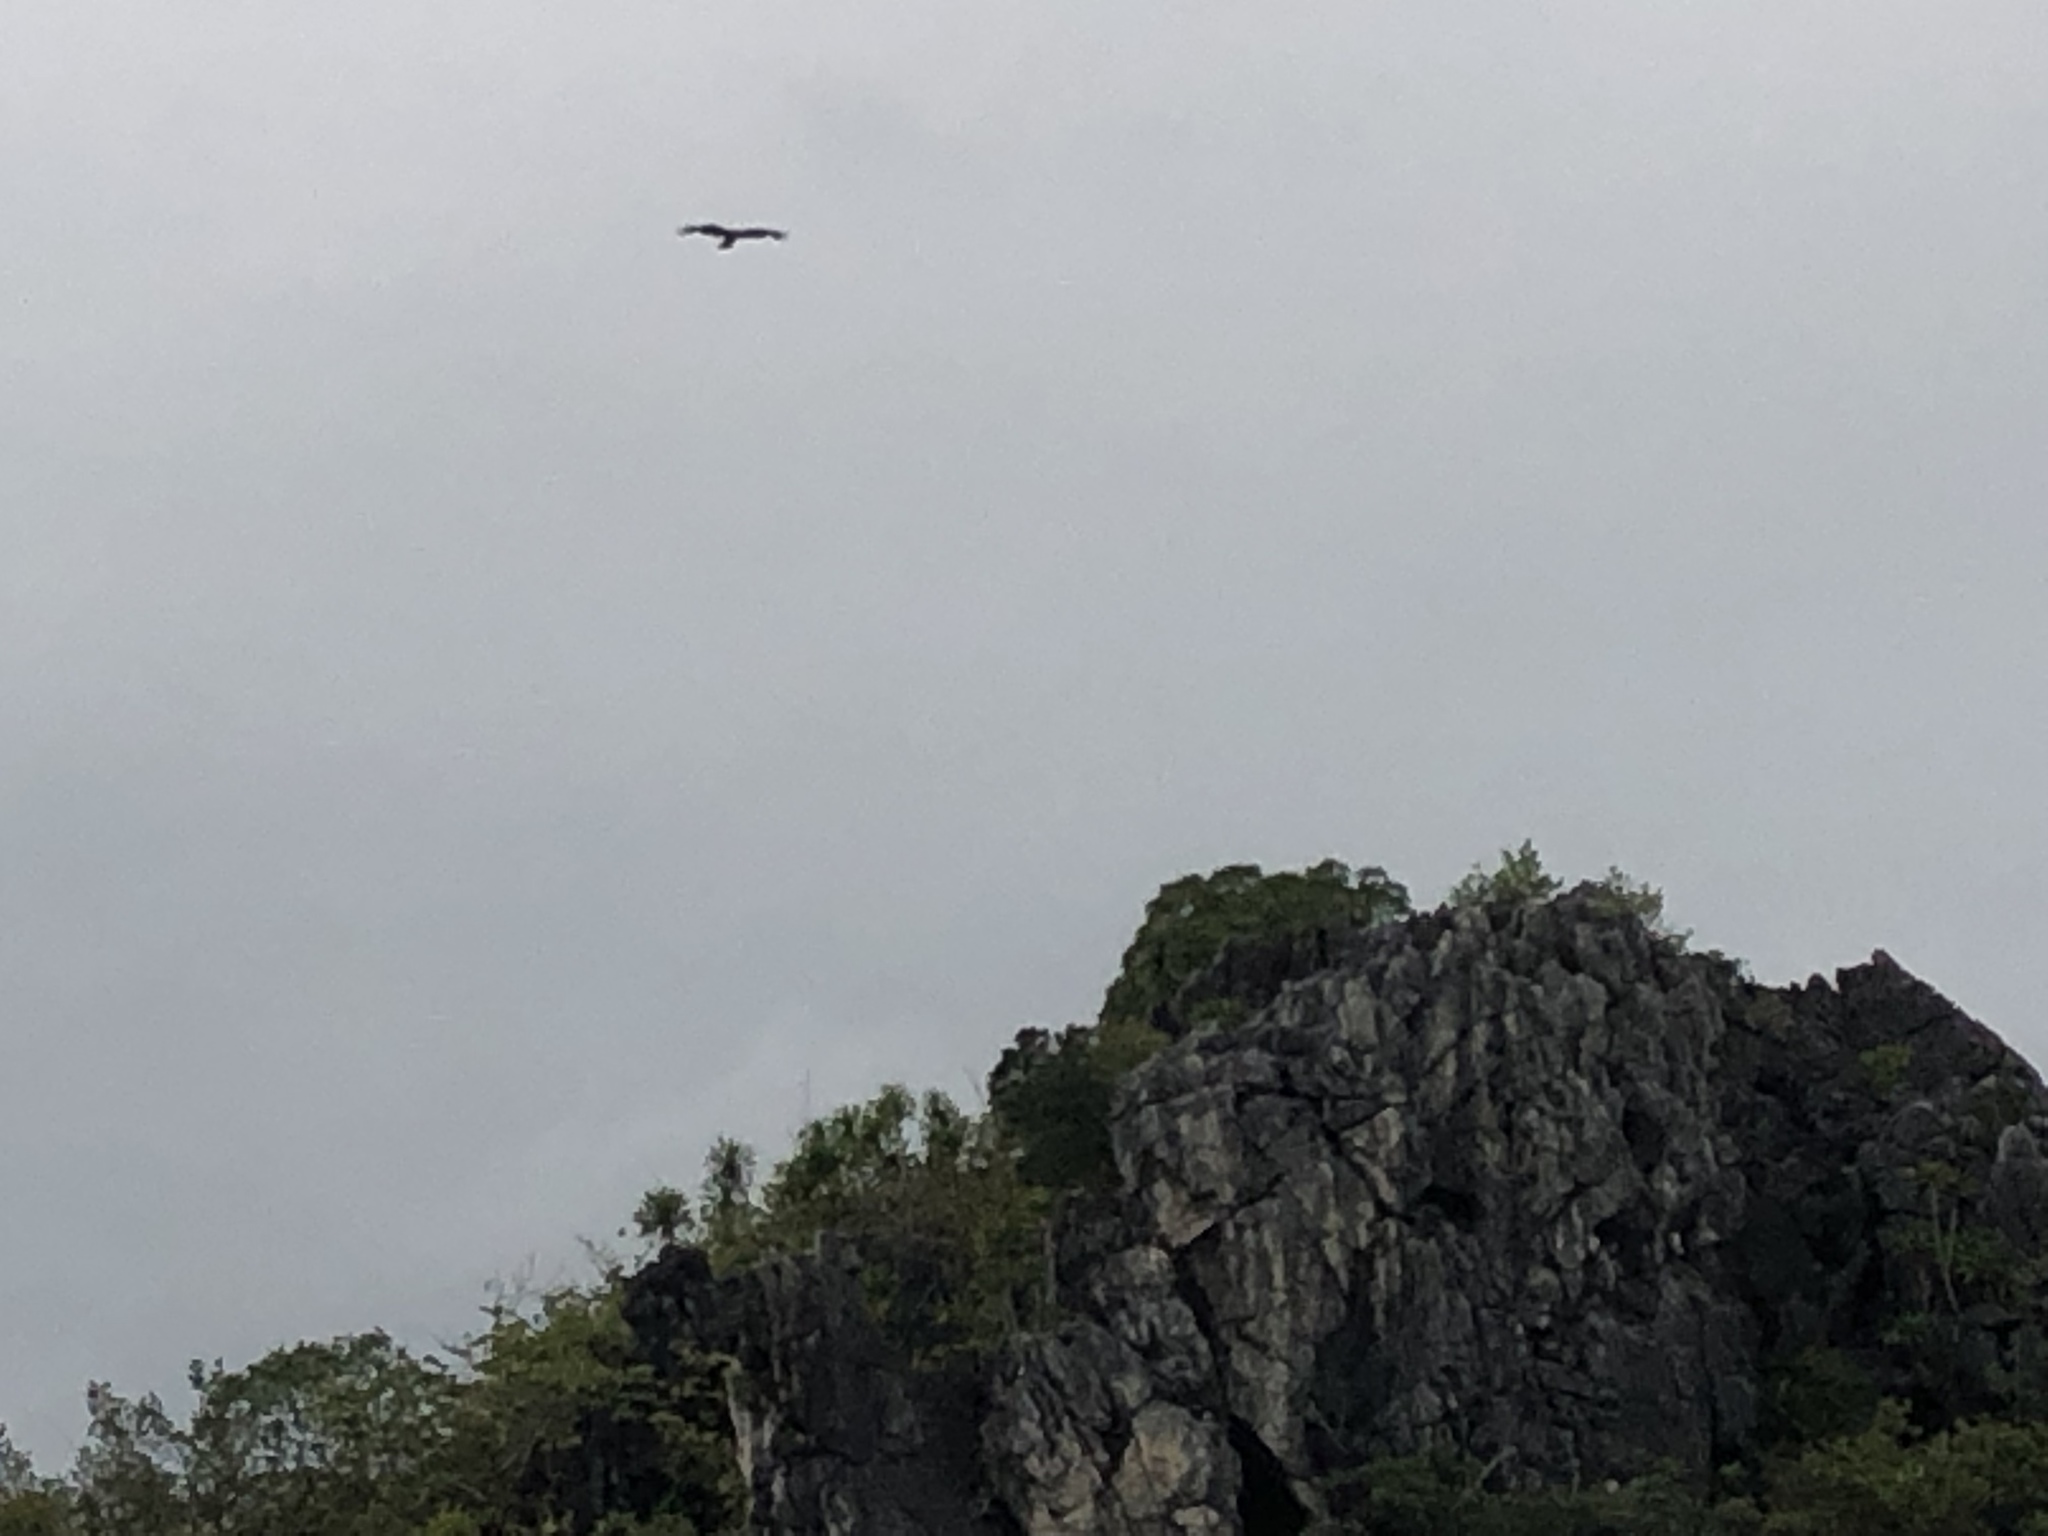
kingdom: Animalia
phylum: Chordata
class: Aves
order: Accipitriformes
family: Accipitridae
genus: Milvus
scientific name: Milvus migrans
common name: Black kite
